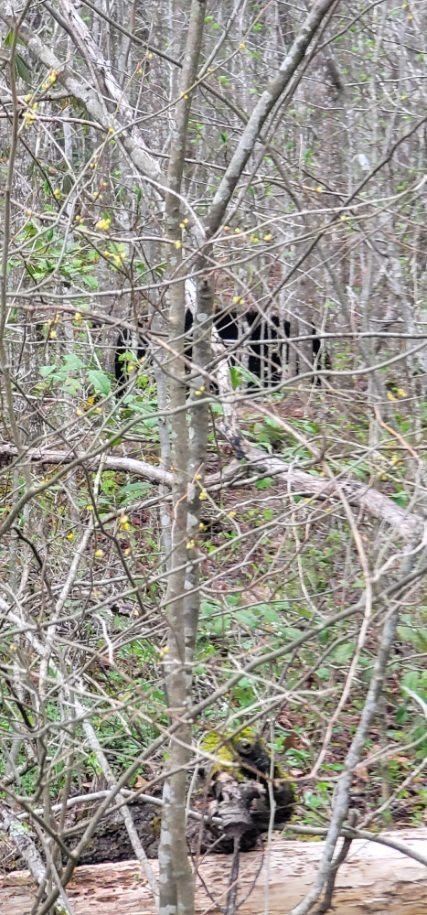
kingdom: Animalia
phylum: Chordata
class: Mammalia
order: Carnivora
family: Ursidae
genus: Ursus
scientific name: Ursus americanus
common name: American black bear
